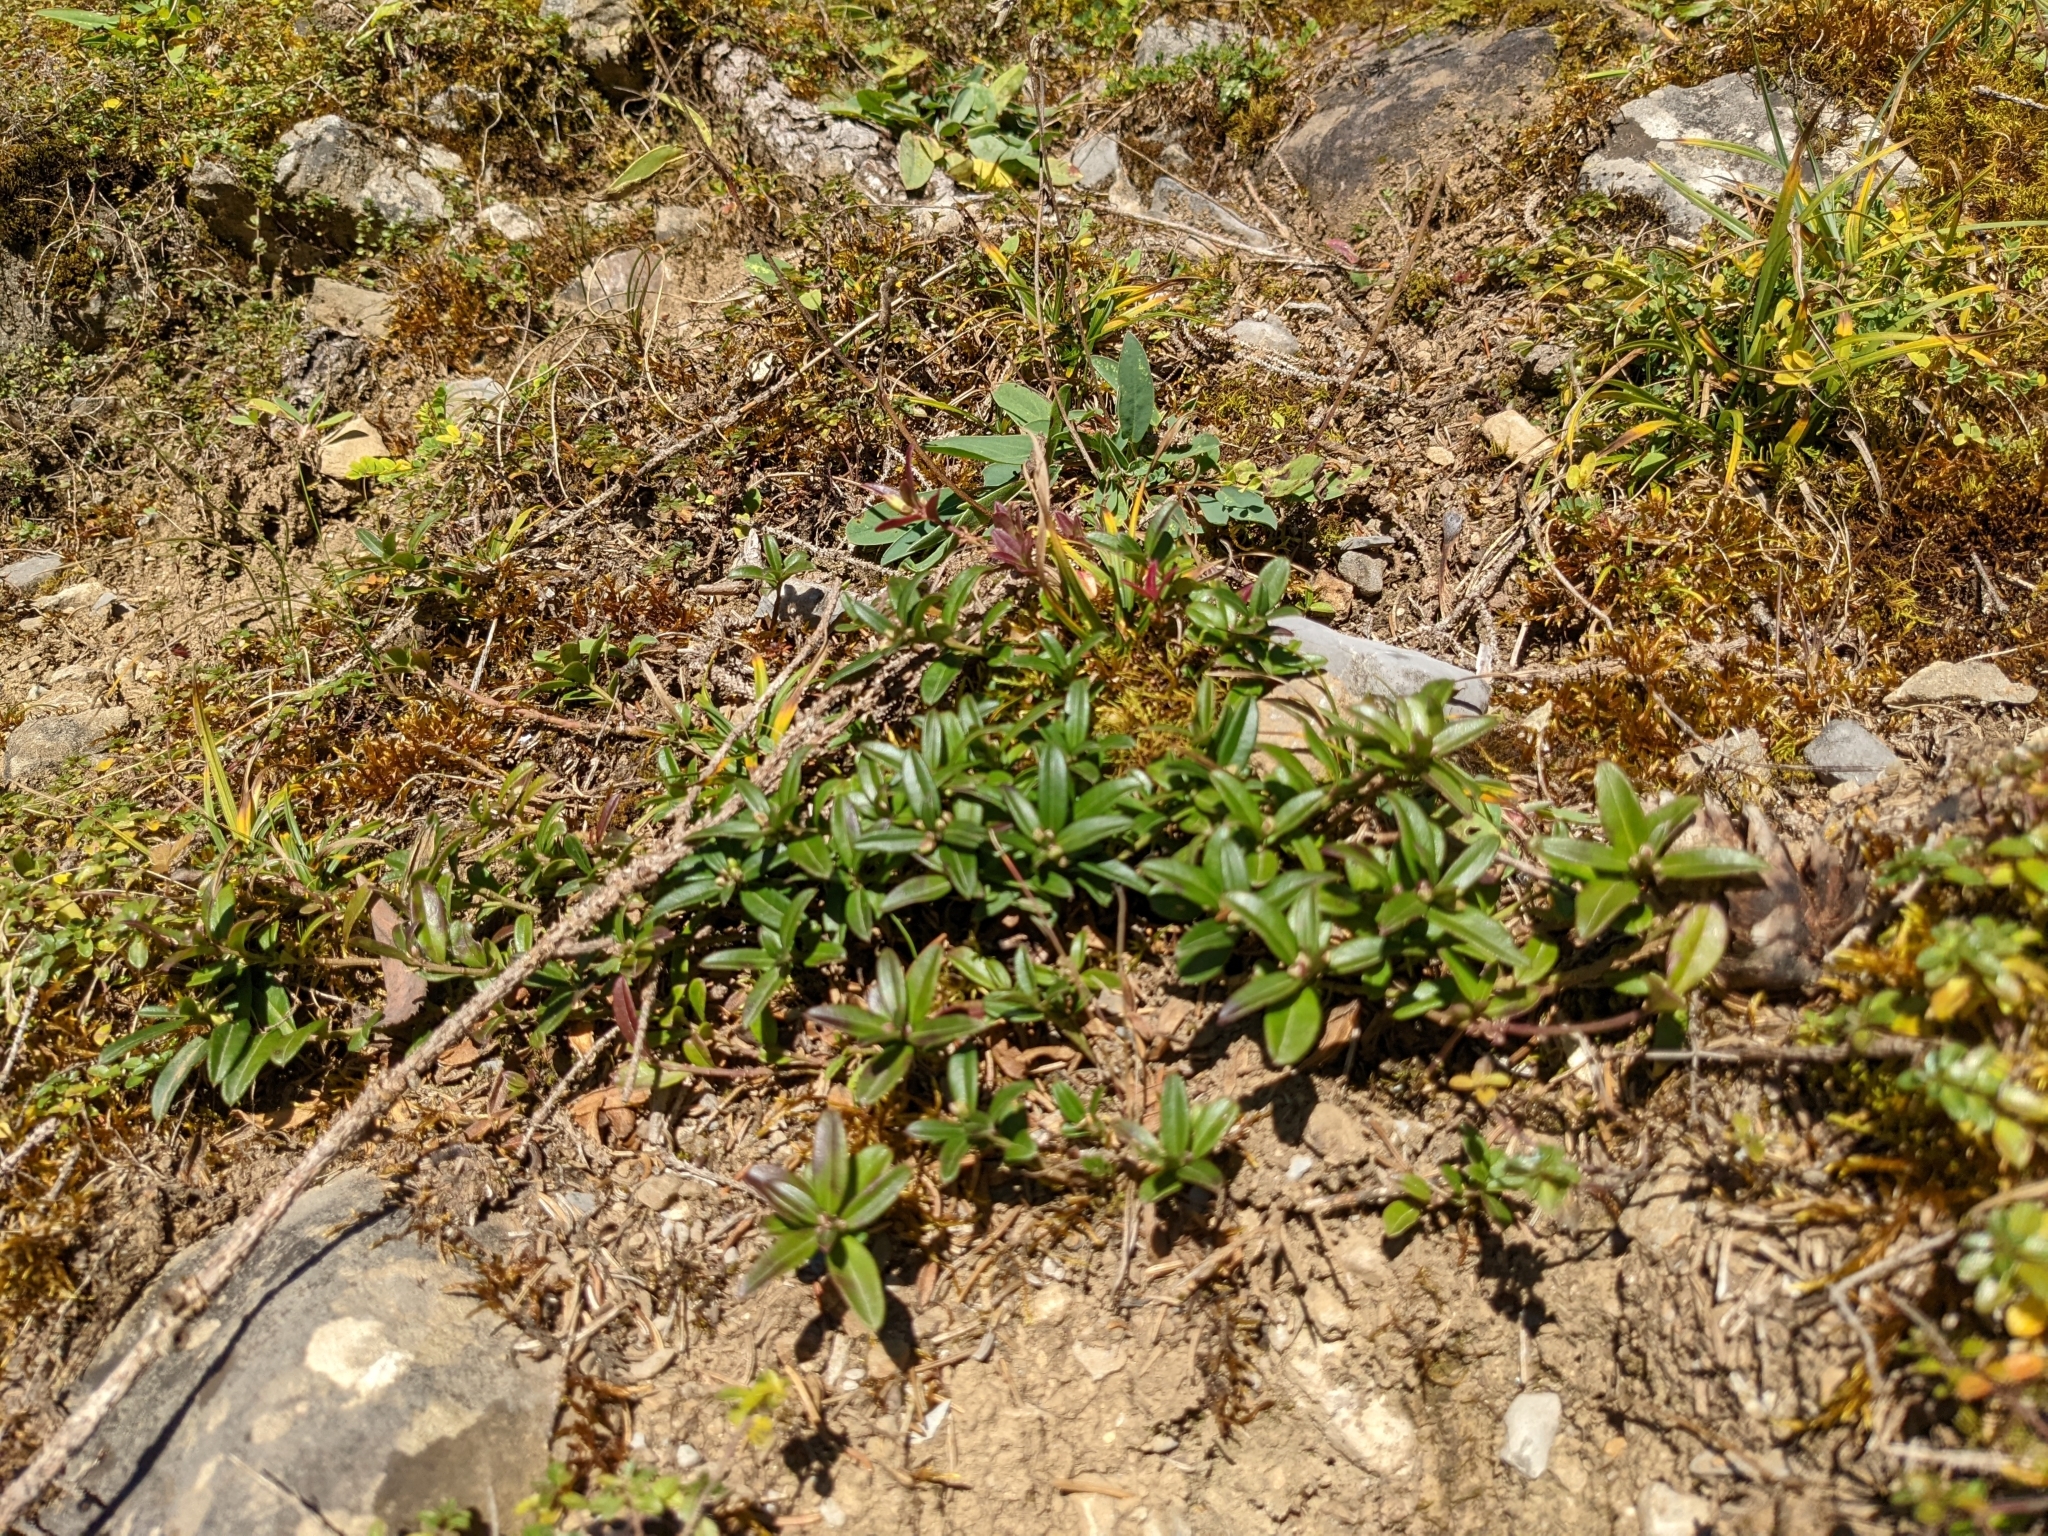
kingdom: Plantae
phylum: Tracheophyta
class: Magnoliopsida
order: Fabales
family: Polygalaceae
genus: Polygaloides
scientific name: Polygaloides chamaebuxus
